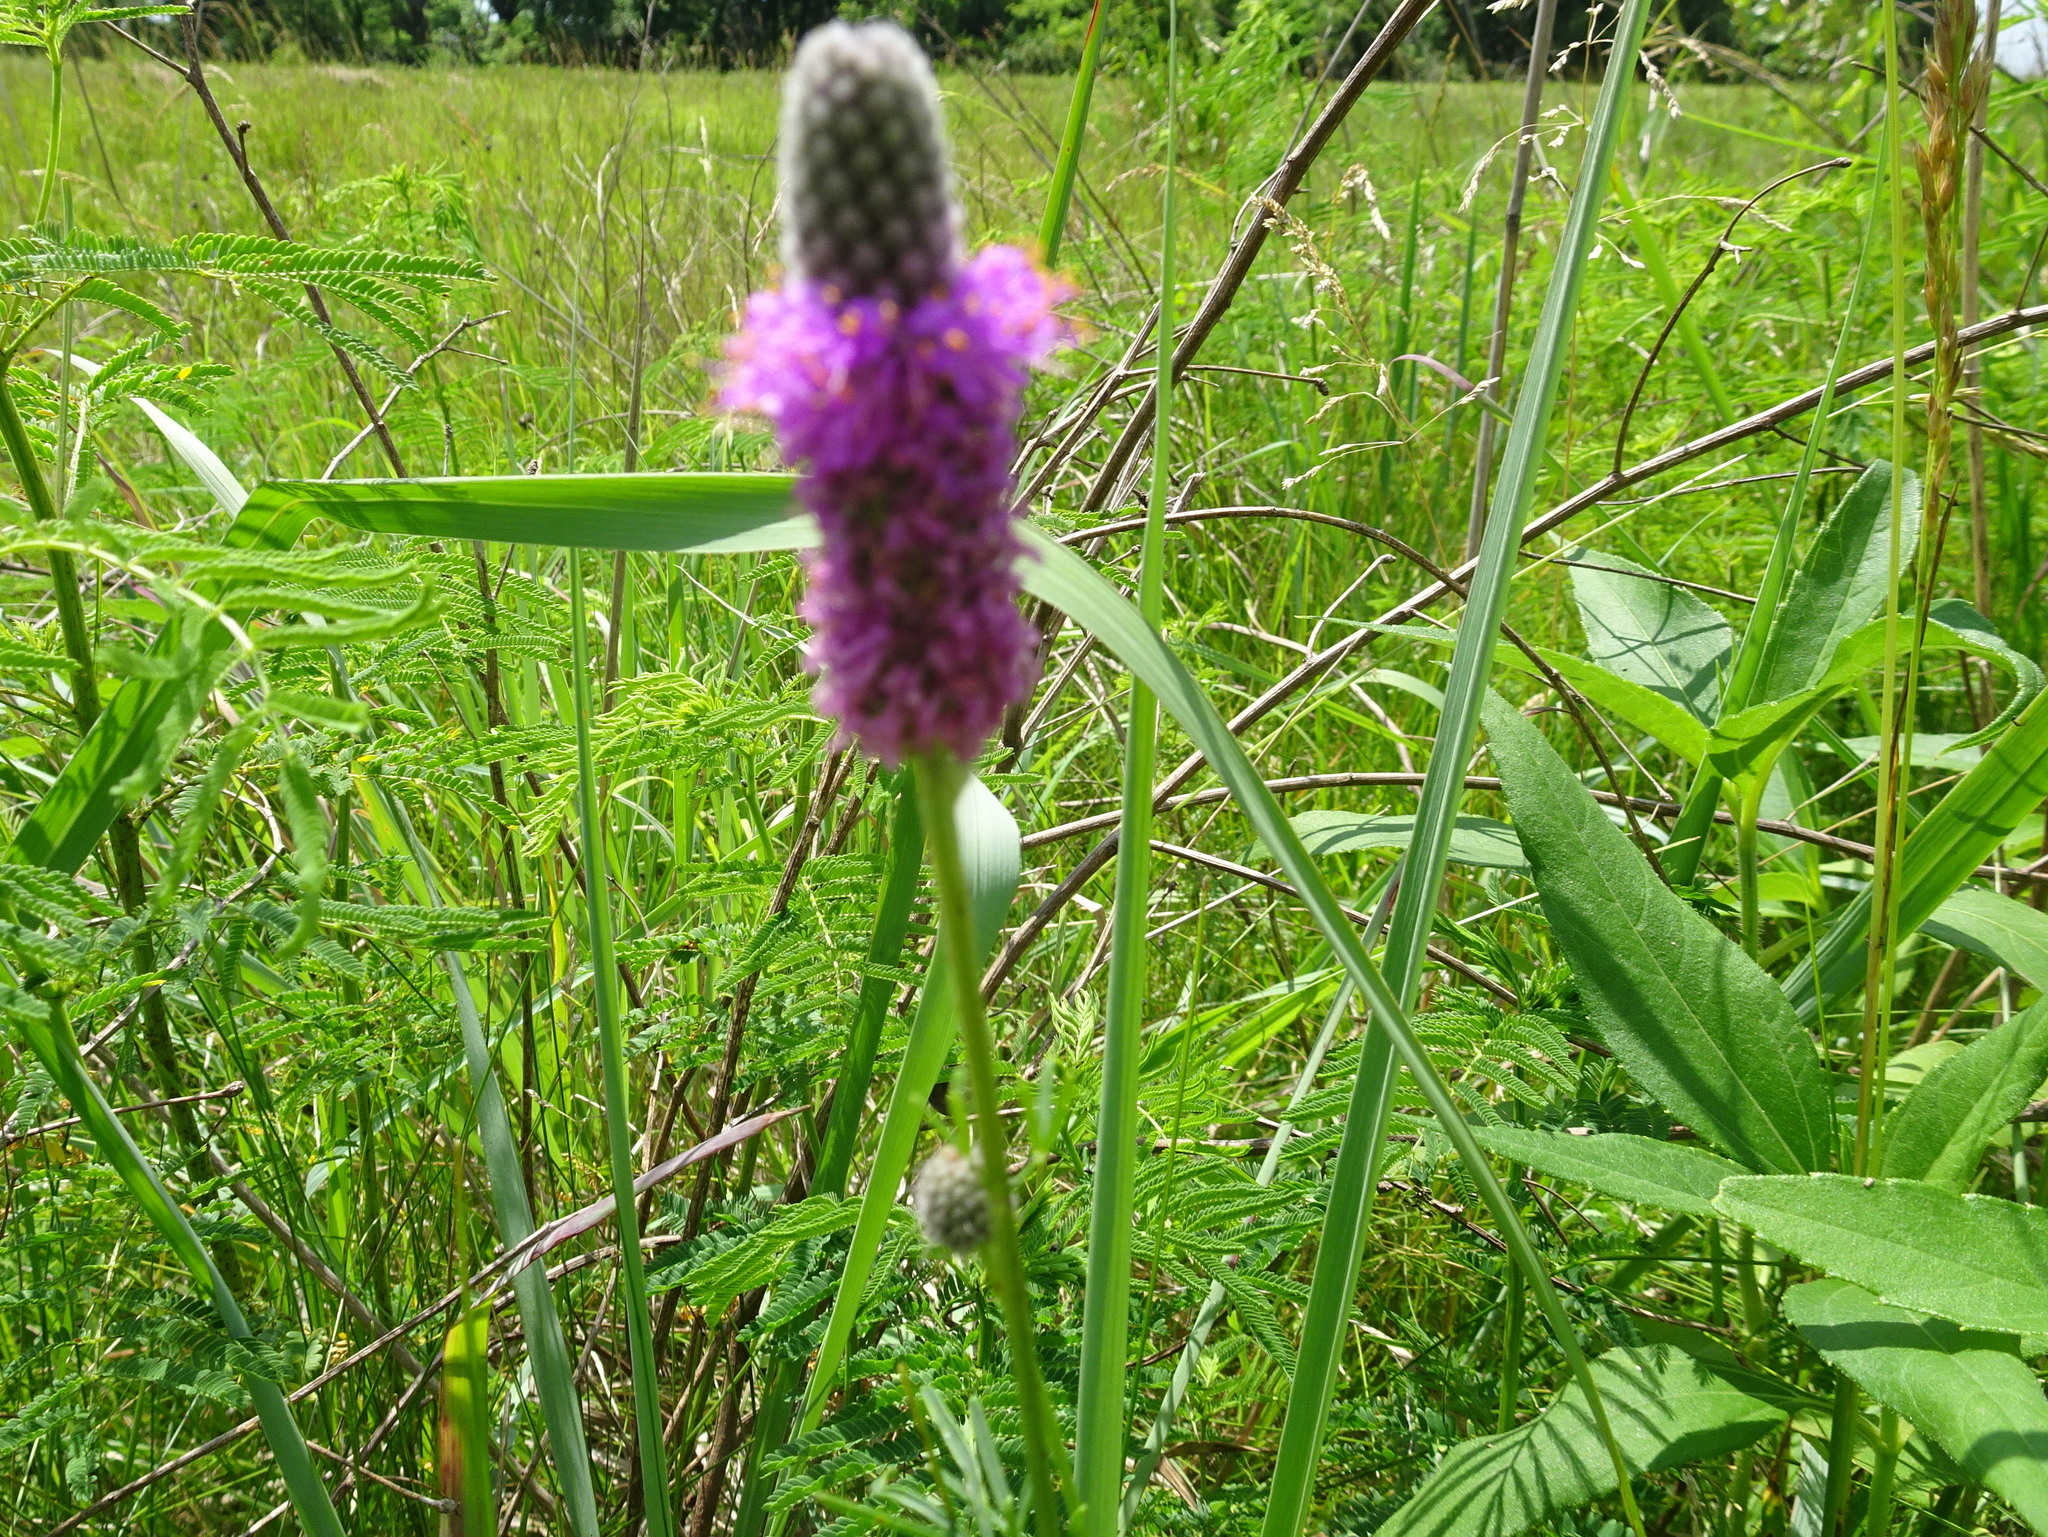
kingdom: Plantae
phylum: Tracheophyta
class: Magnoliopsida
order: Fabales
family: Fabaceae
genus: Dalea
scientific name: Dalea purpurea
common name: Purple prairie-clover
